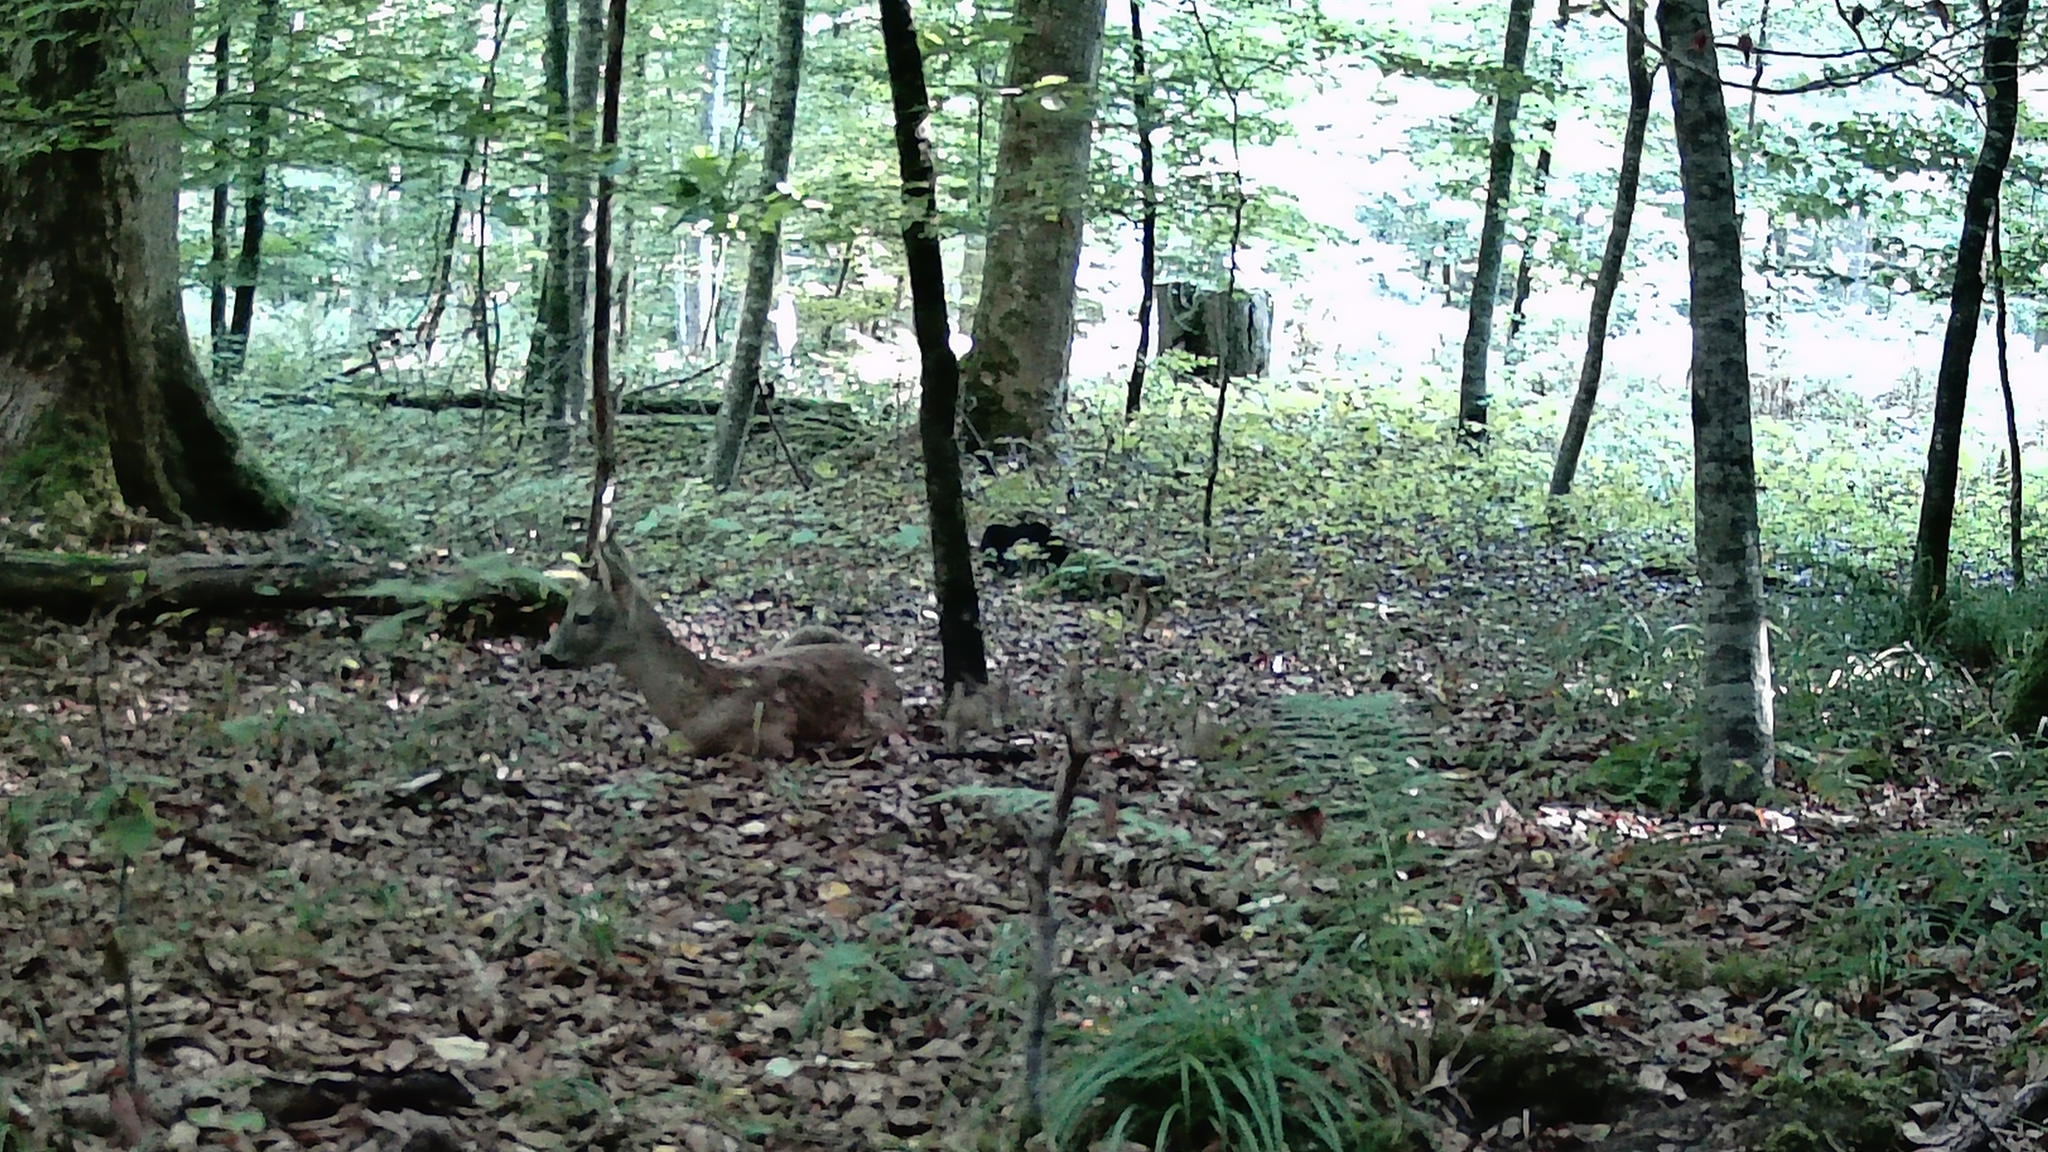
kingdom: Animalia
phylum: Chordata
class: Mammalia
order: Artiodactyla
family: Cervidae
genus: Capreolus
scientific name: Capreolus capreolus
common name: Western roe deer
